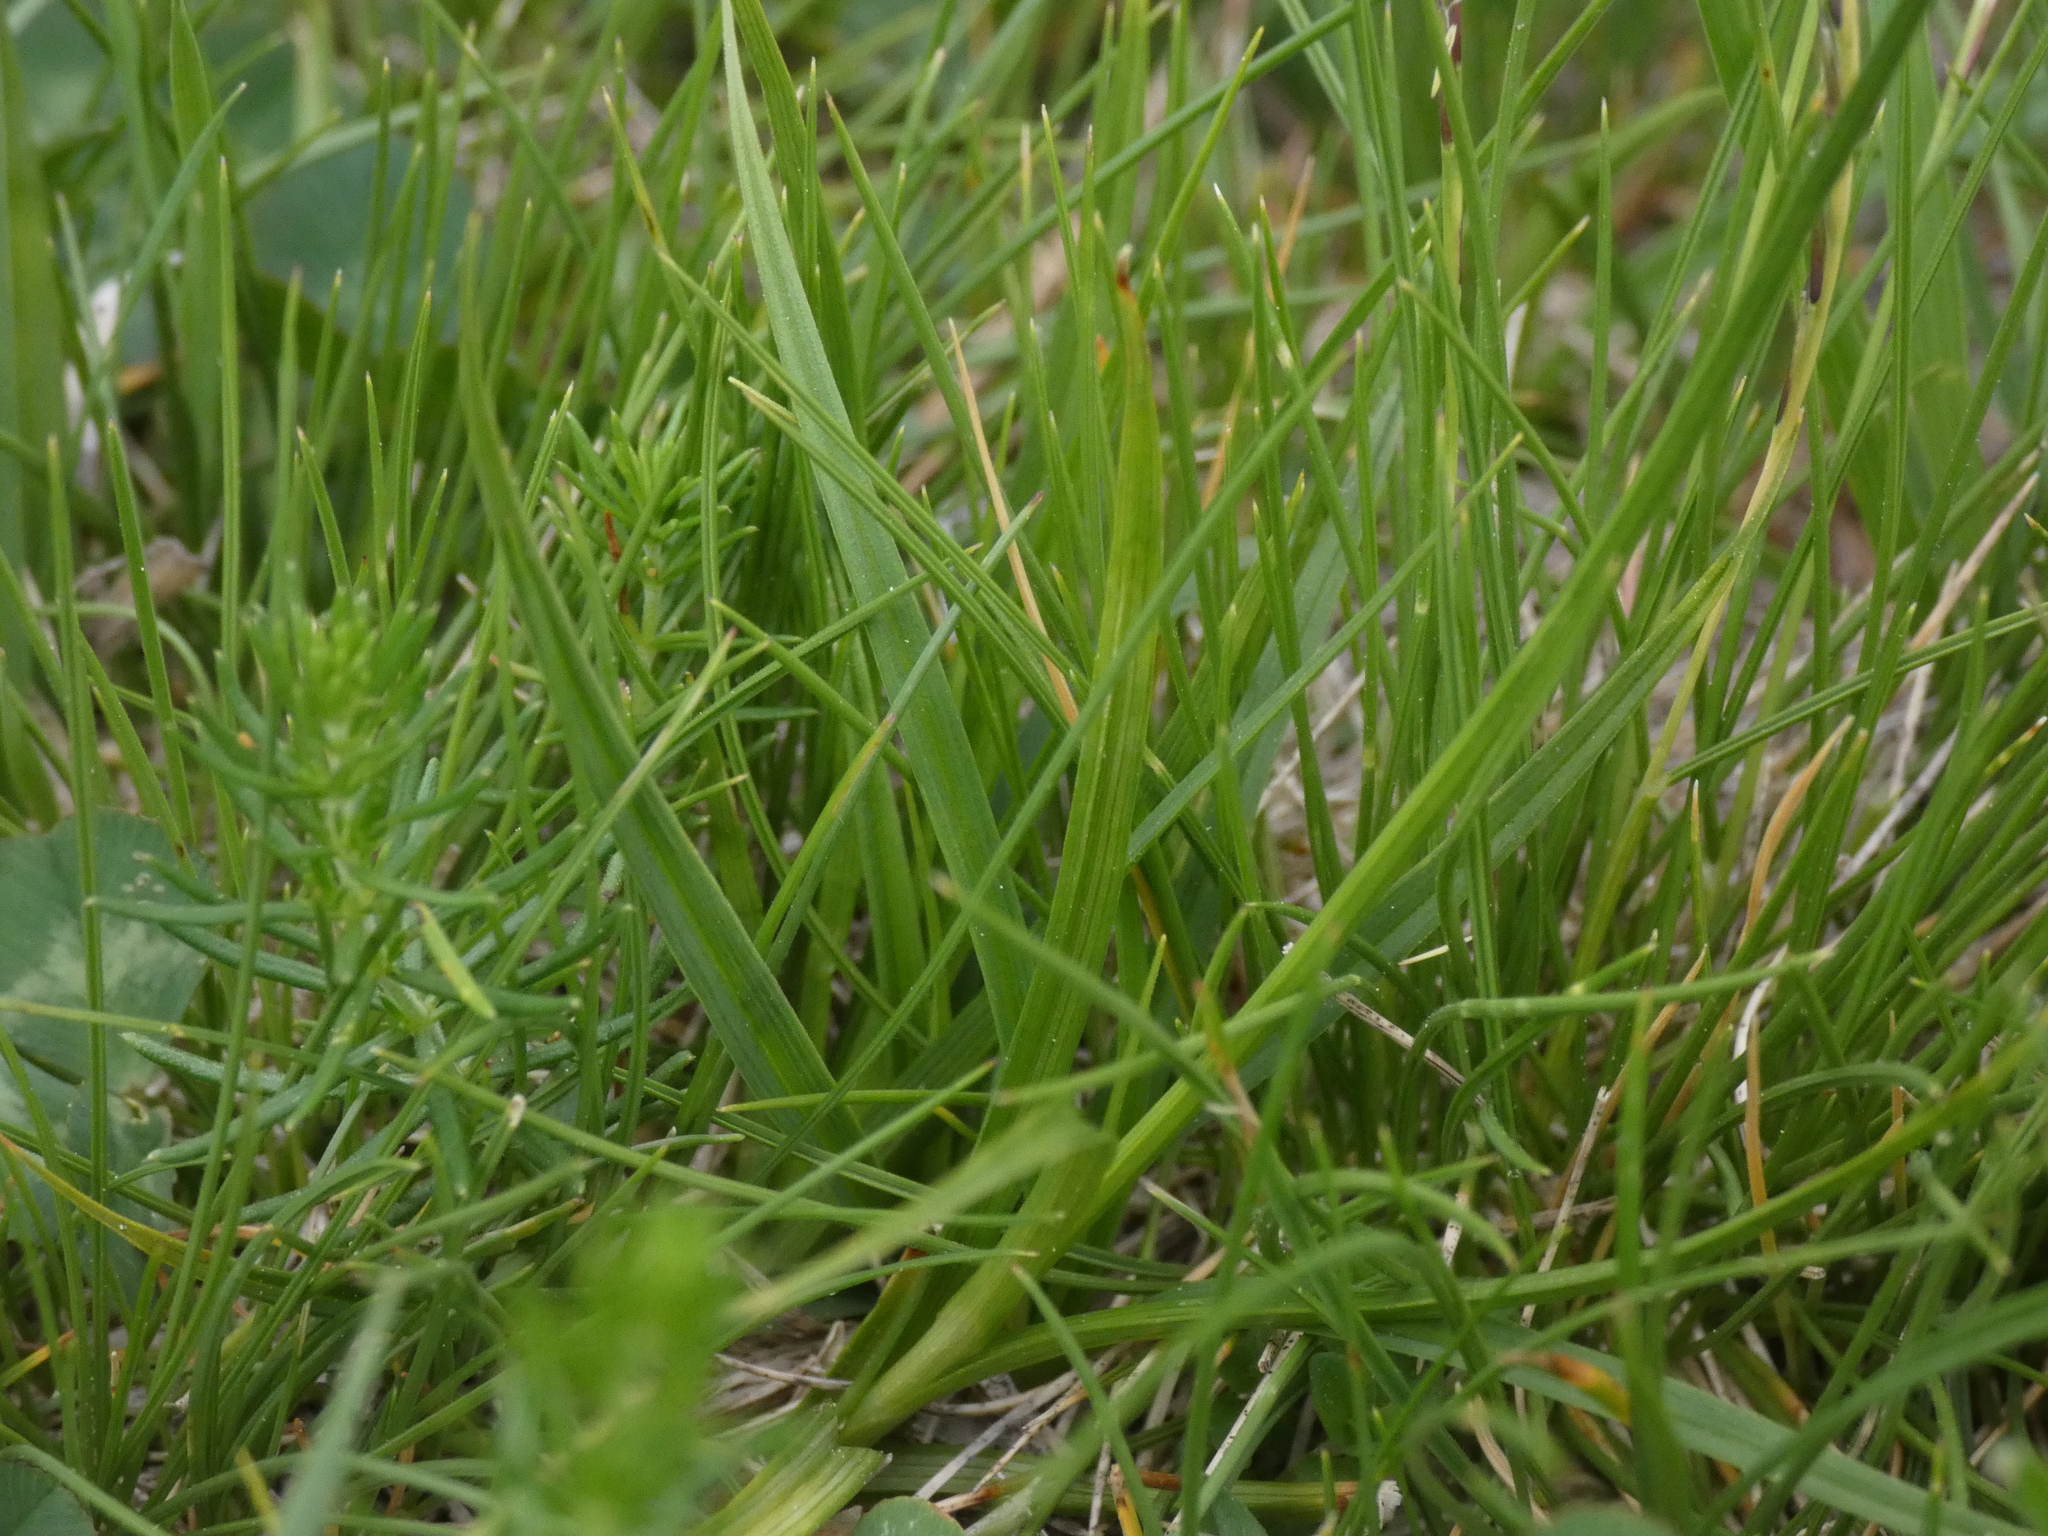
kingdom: Plantae
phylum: Tracheophyta
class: Liliopsida
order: Poales
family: Cyperaceae
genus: Carex
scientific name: Carex leporina
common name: Oval sedge
